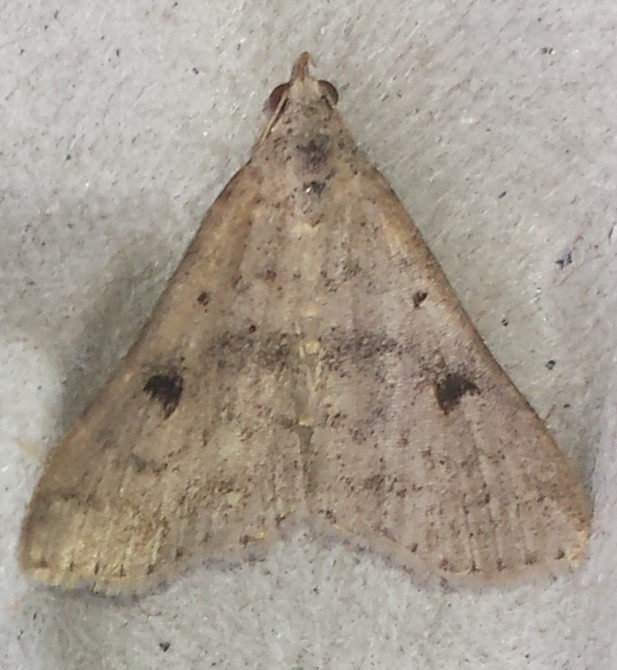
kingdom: Animalia
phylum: Arthropoda
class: Insecta
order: Lepidoptera
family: Erebidae
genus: Bleptina
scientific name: Bleptina caradrinalis
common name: Bent-winged owlet
